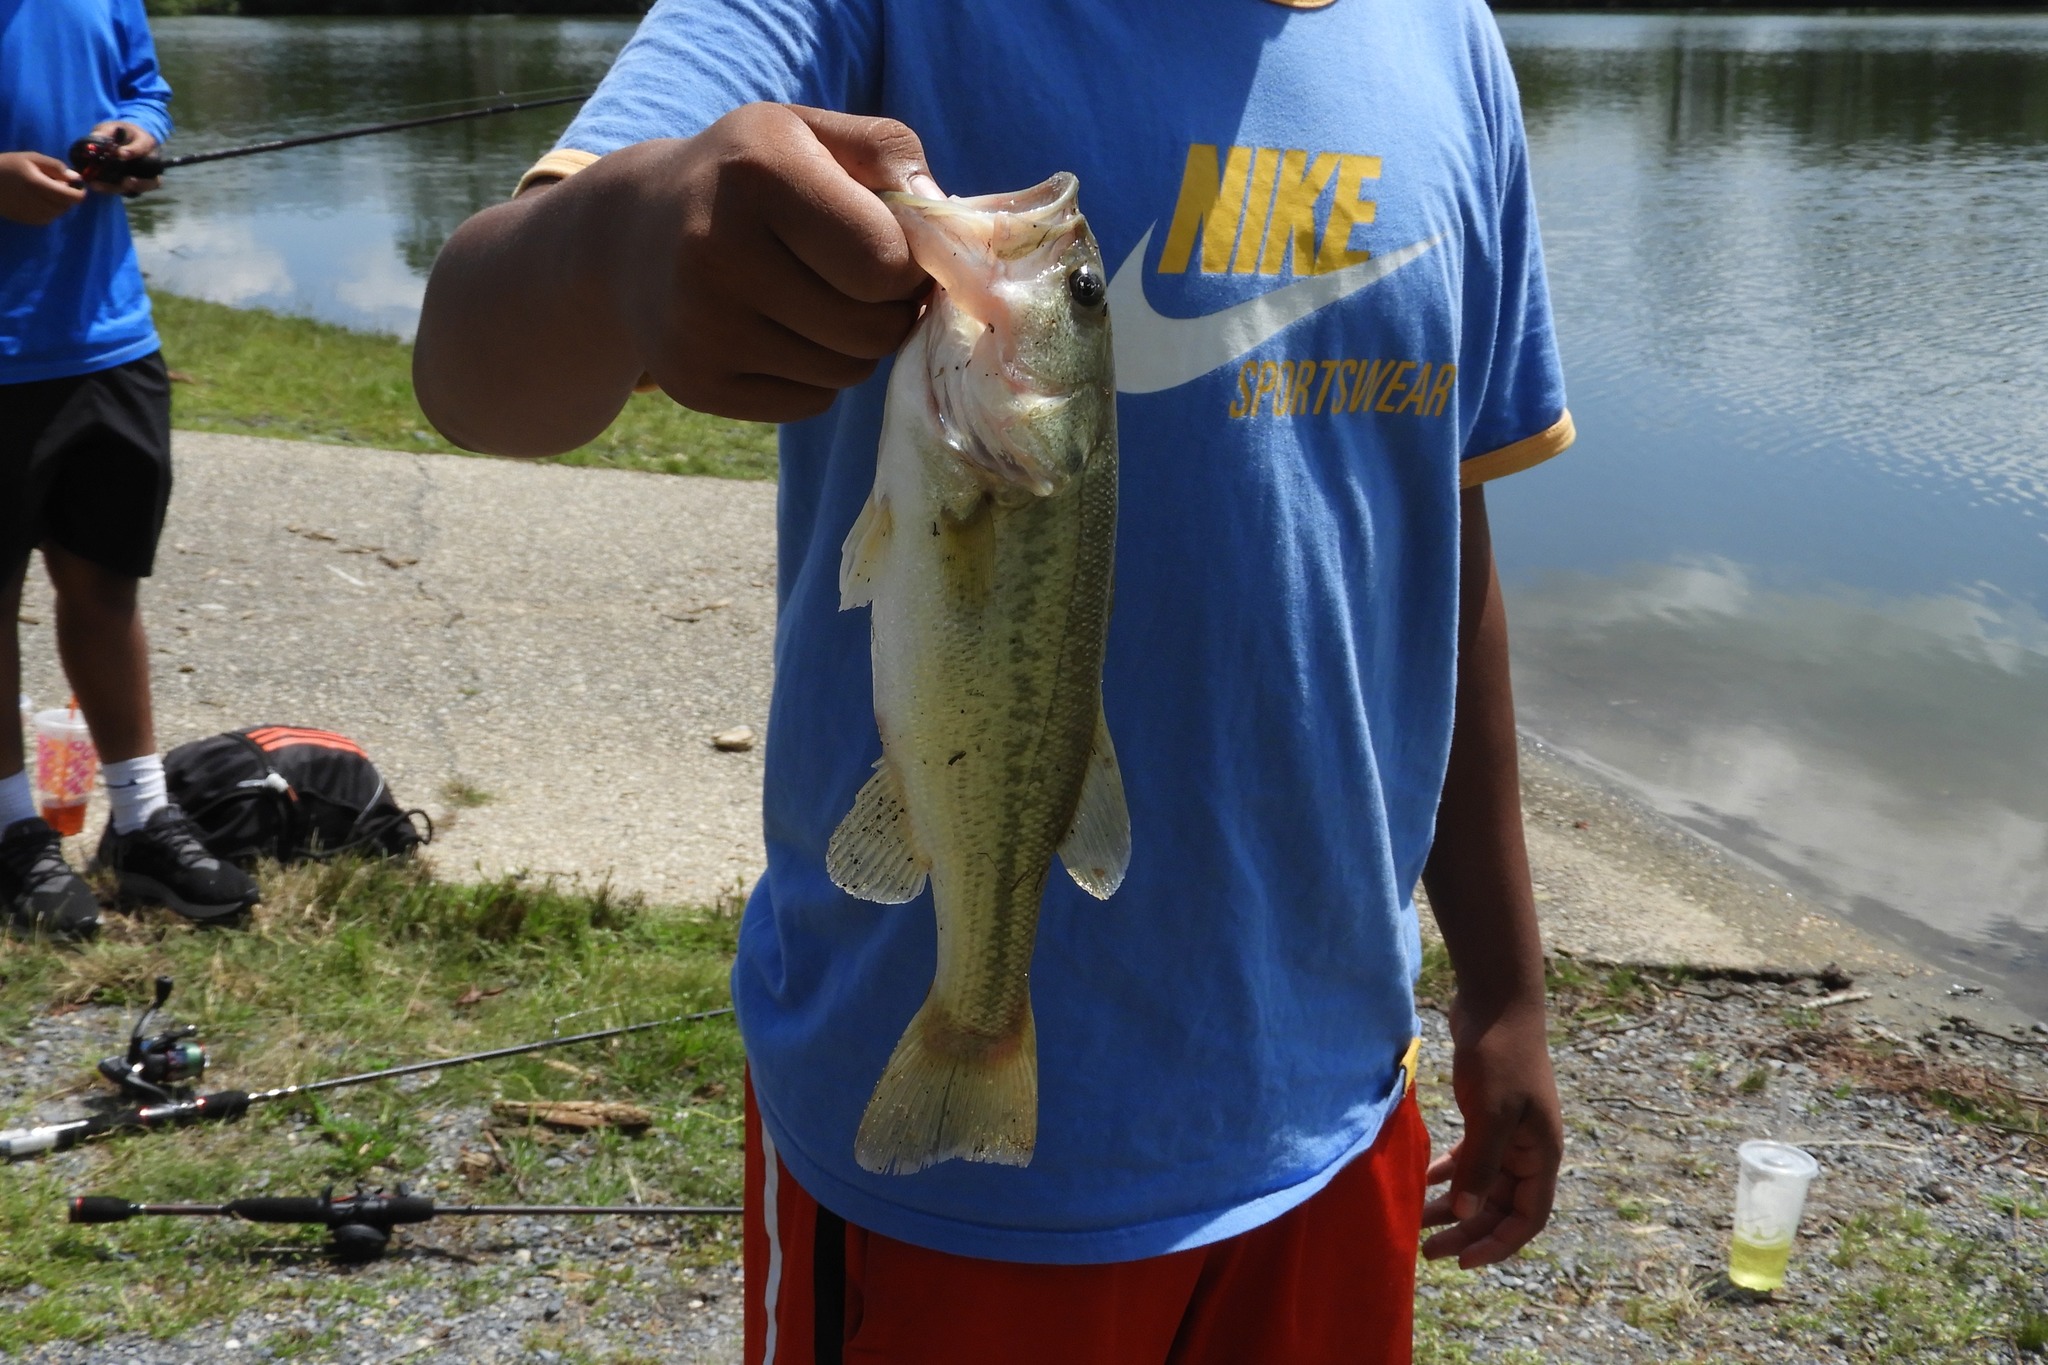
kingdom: Animalia
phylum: Chordata
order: Perciformes
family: Centrarchidae
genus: Micropterus
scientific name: Micropterus
